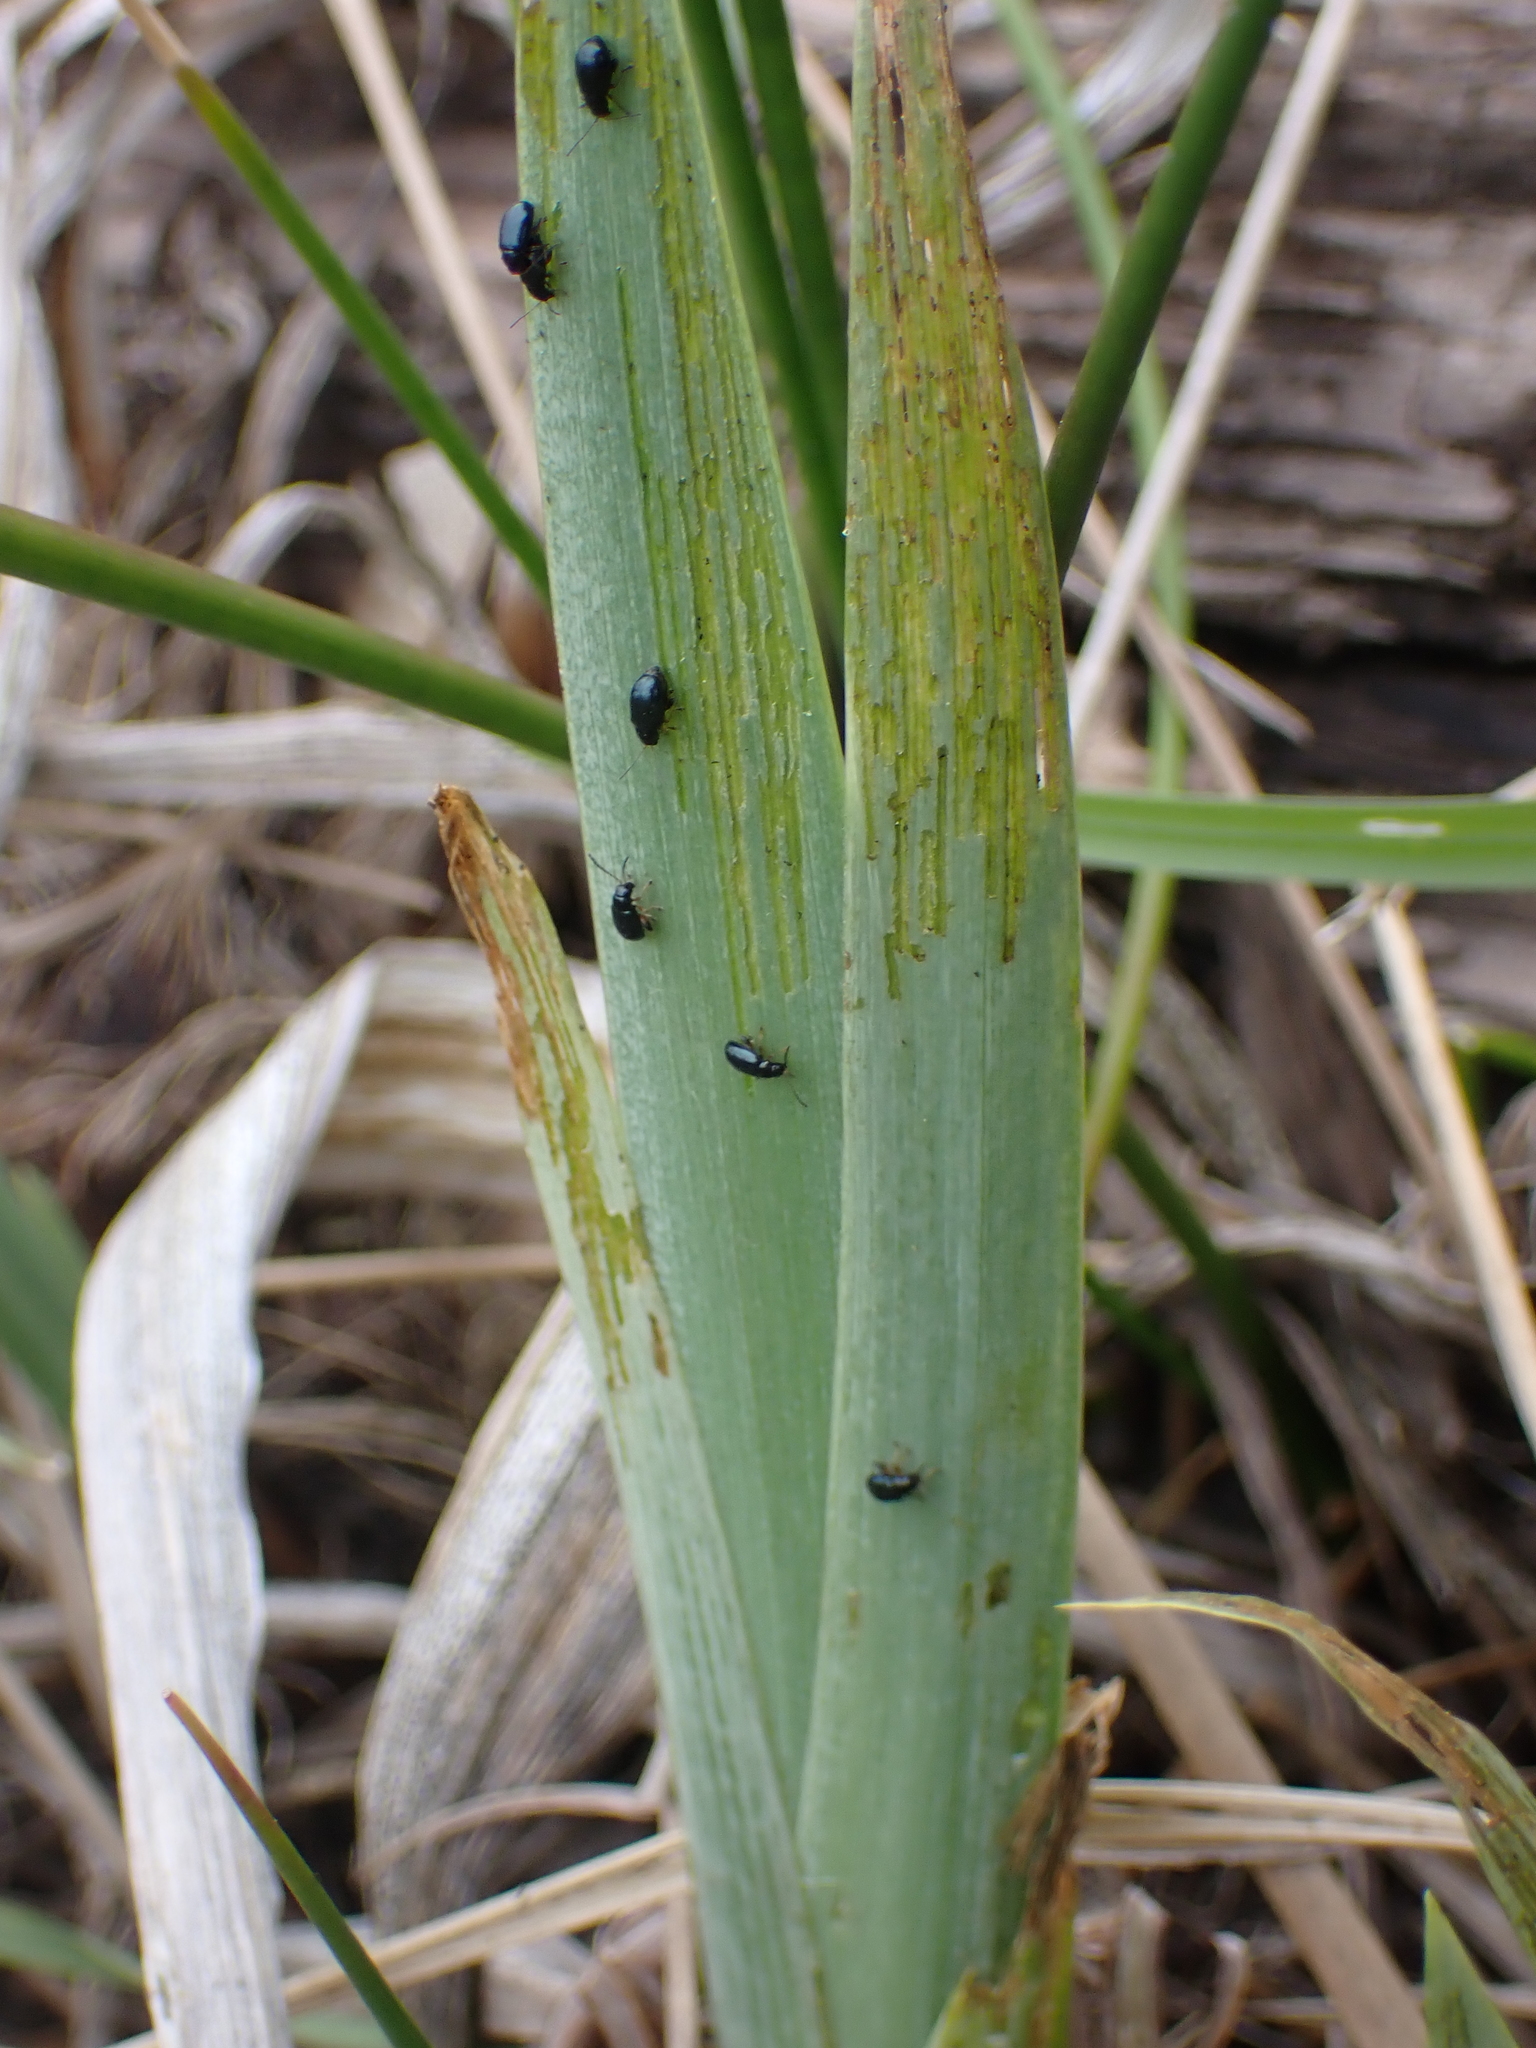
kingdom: Animalia
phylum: Arthropoda
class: Insecta
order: Coleoptera
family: Chrysomelidae
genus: Aphthona
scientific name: Aphthona nonstriata
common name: Iris flea beetle
